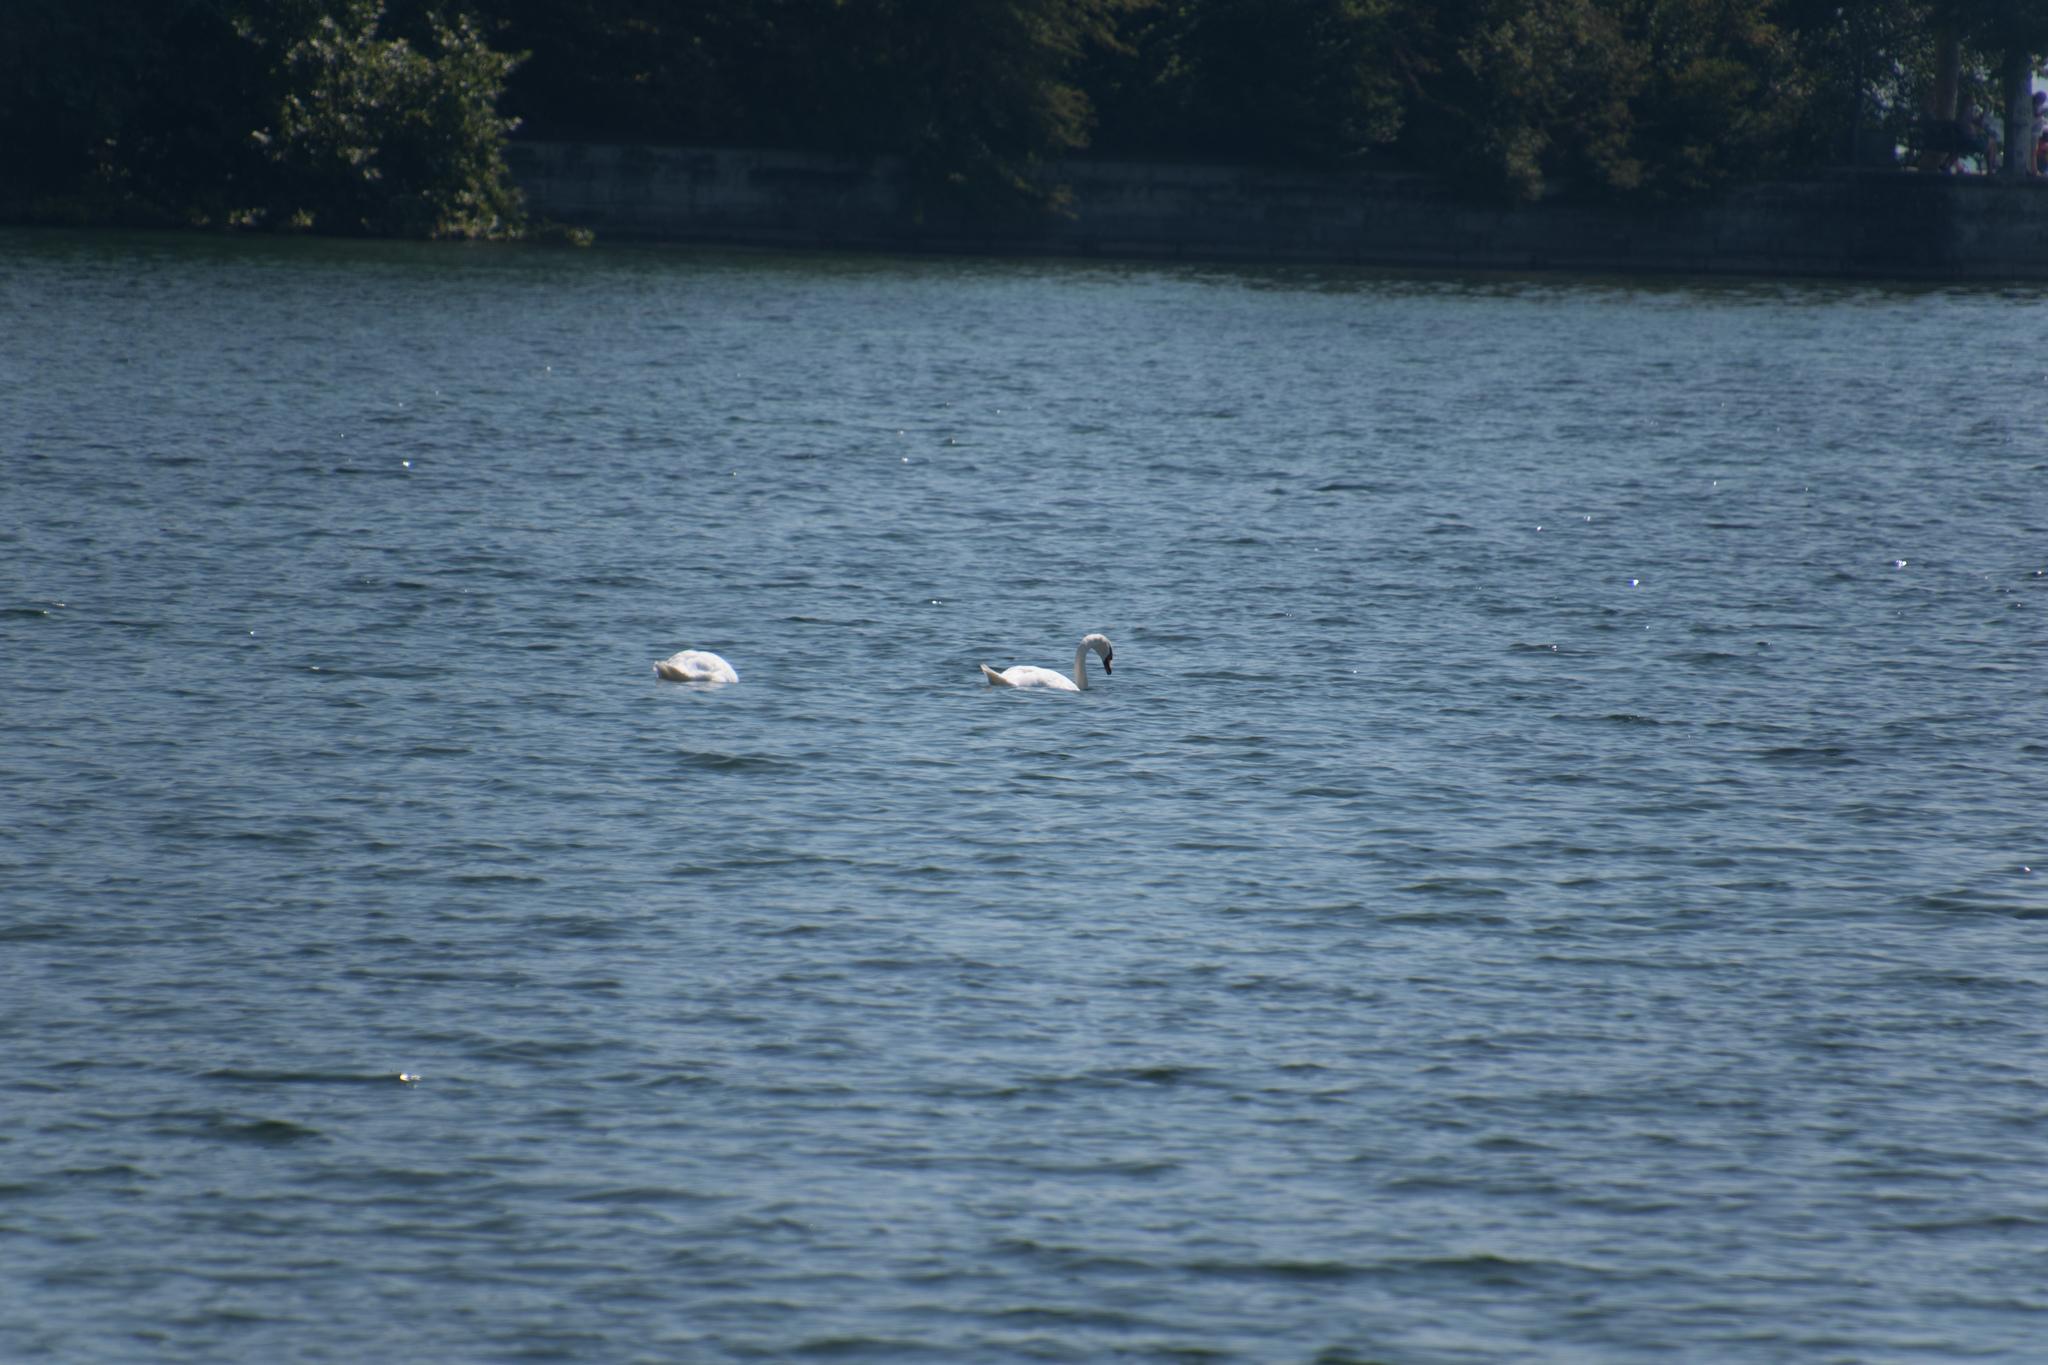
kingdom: Animalia
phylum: Chordata
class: Aves
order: Anseriformes
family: Anatidae
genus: Cygnus
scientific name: Cygnus olor
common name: Mute swan
